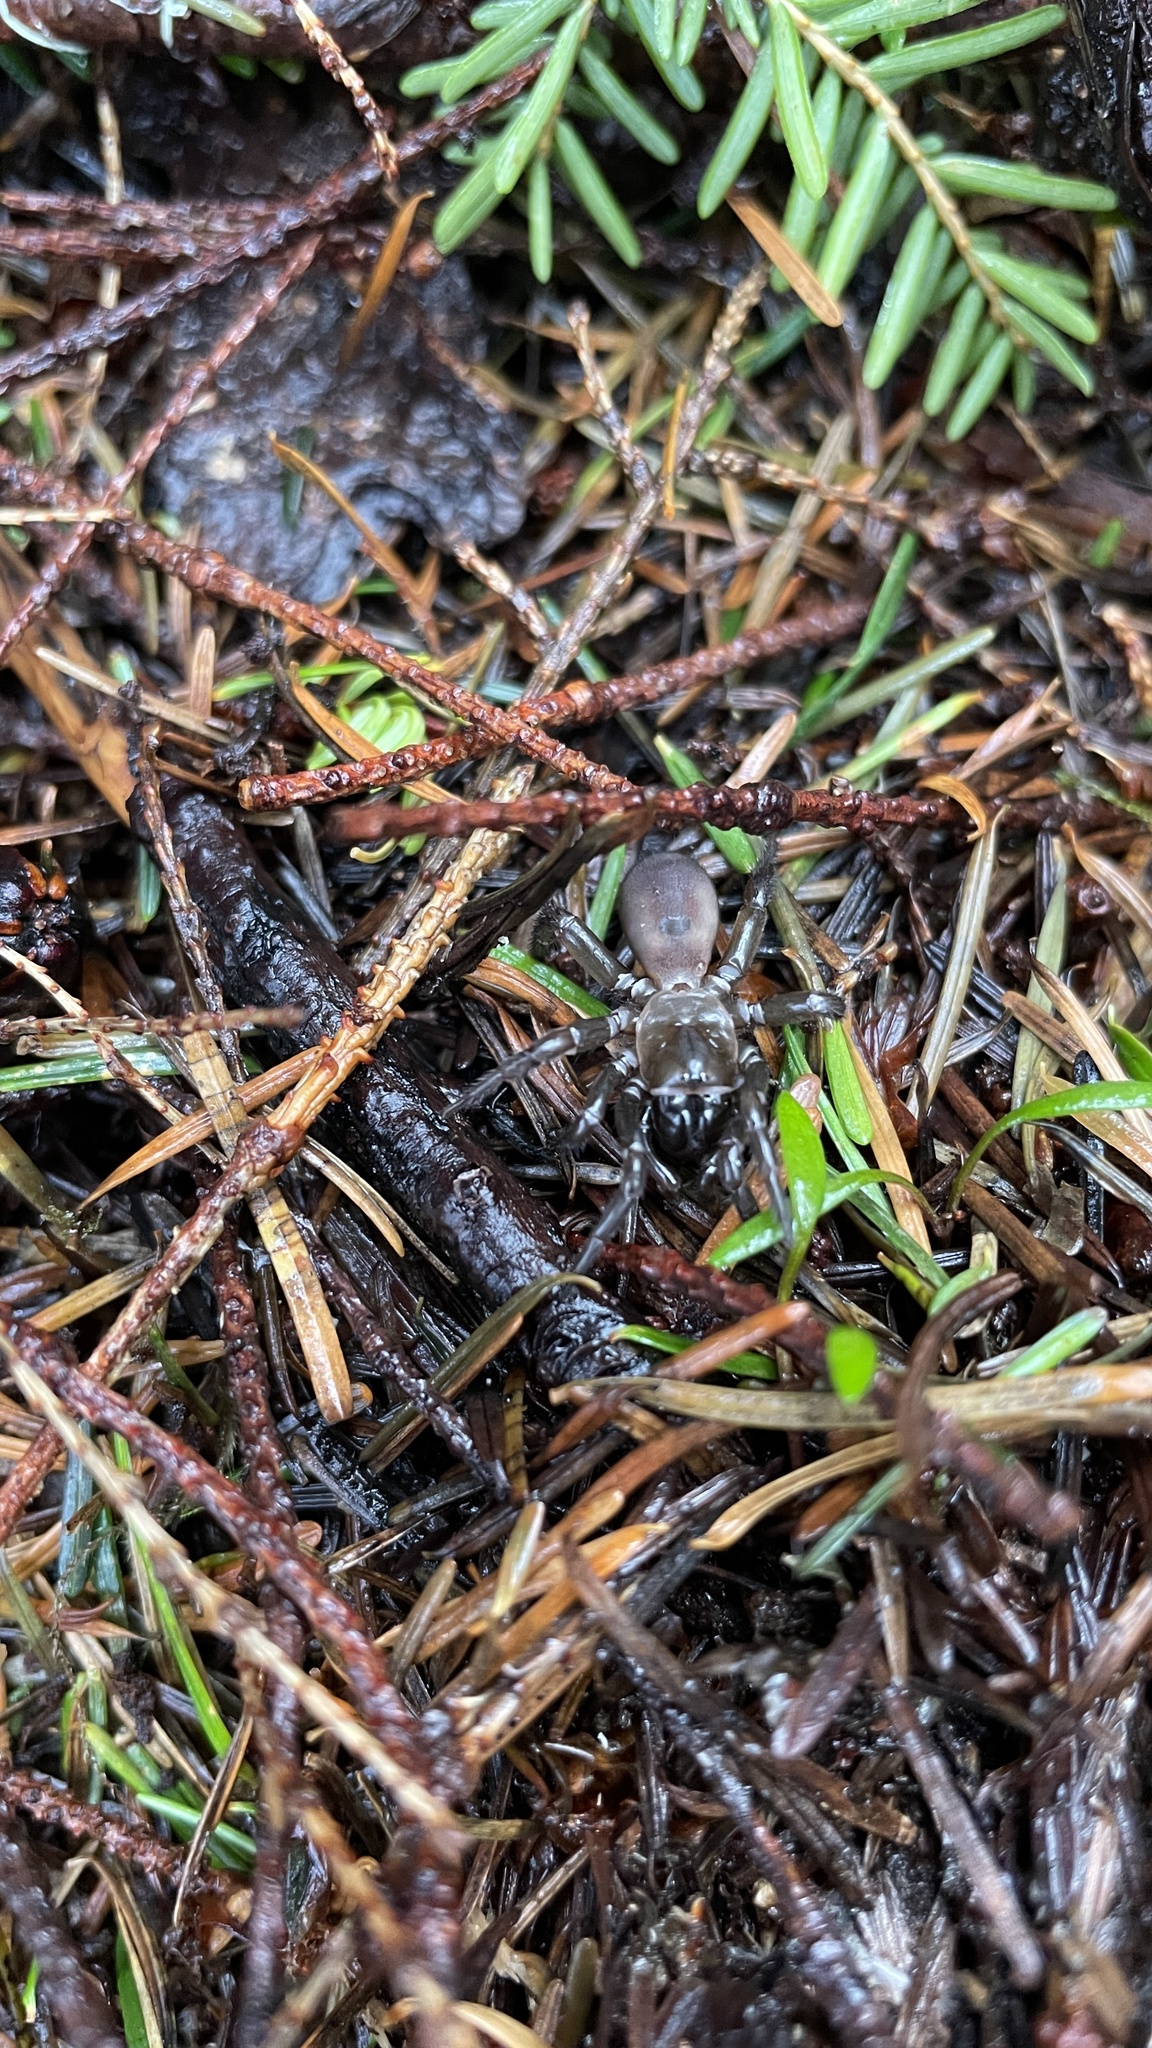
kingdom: Animalia
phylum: Arthropoda
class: Arachnida
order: Araneae
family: Antrodiaetidae
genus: Antrodiaetus
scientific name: Antrodiaetus pacificus
